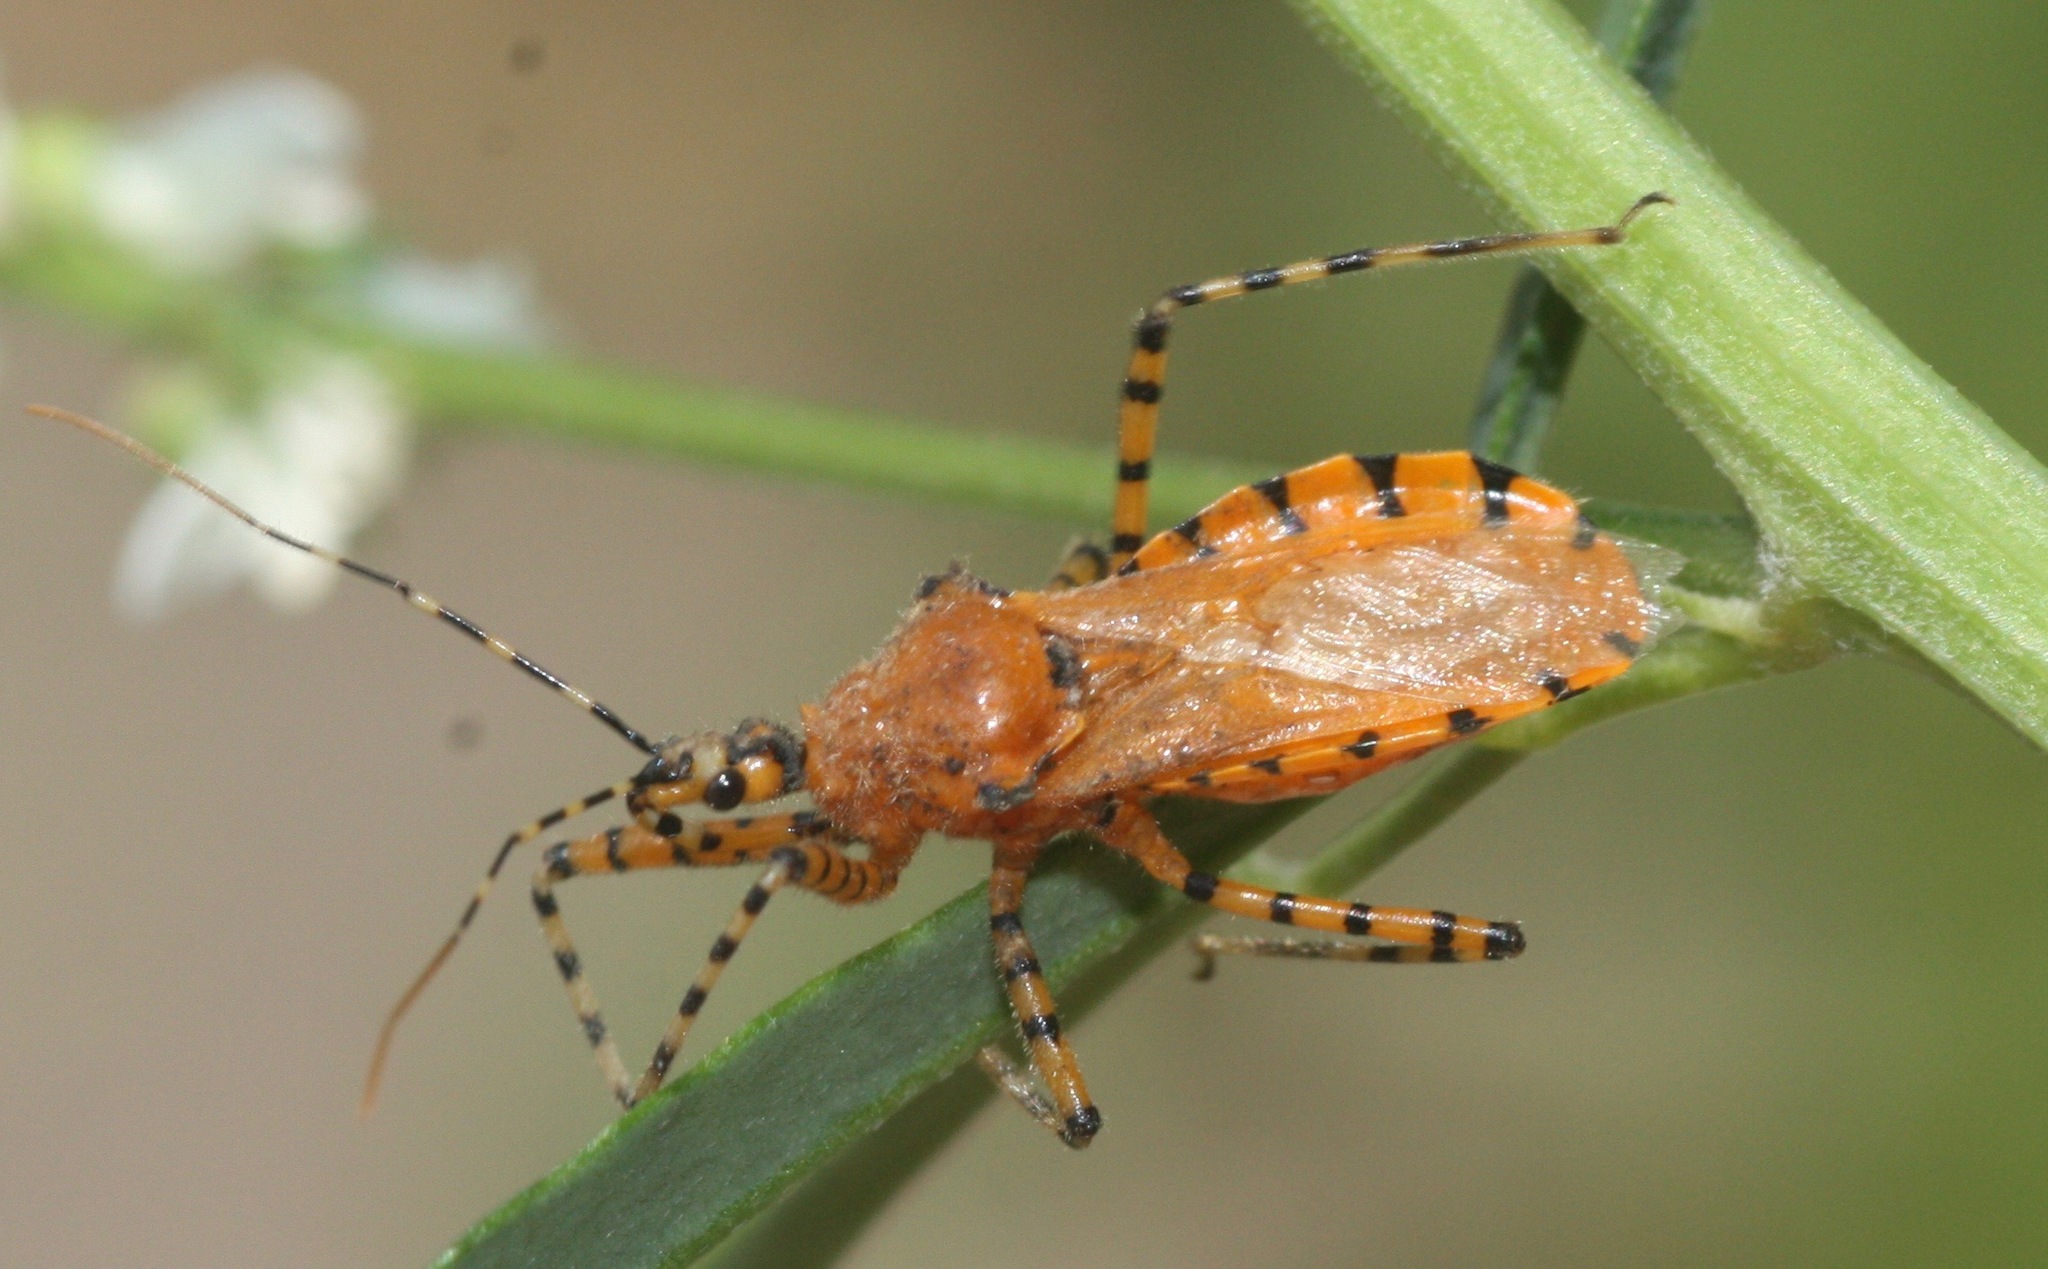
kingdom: Animalia
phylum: Arthropoda
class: Insecta
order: Hemiptera
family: Reduviidae
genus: Pselliopus
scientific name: Pselliopus barberi
